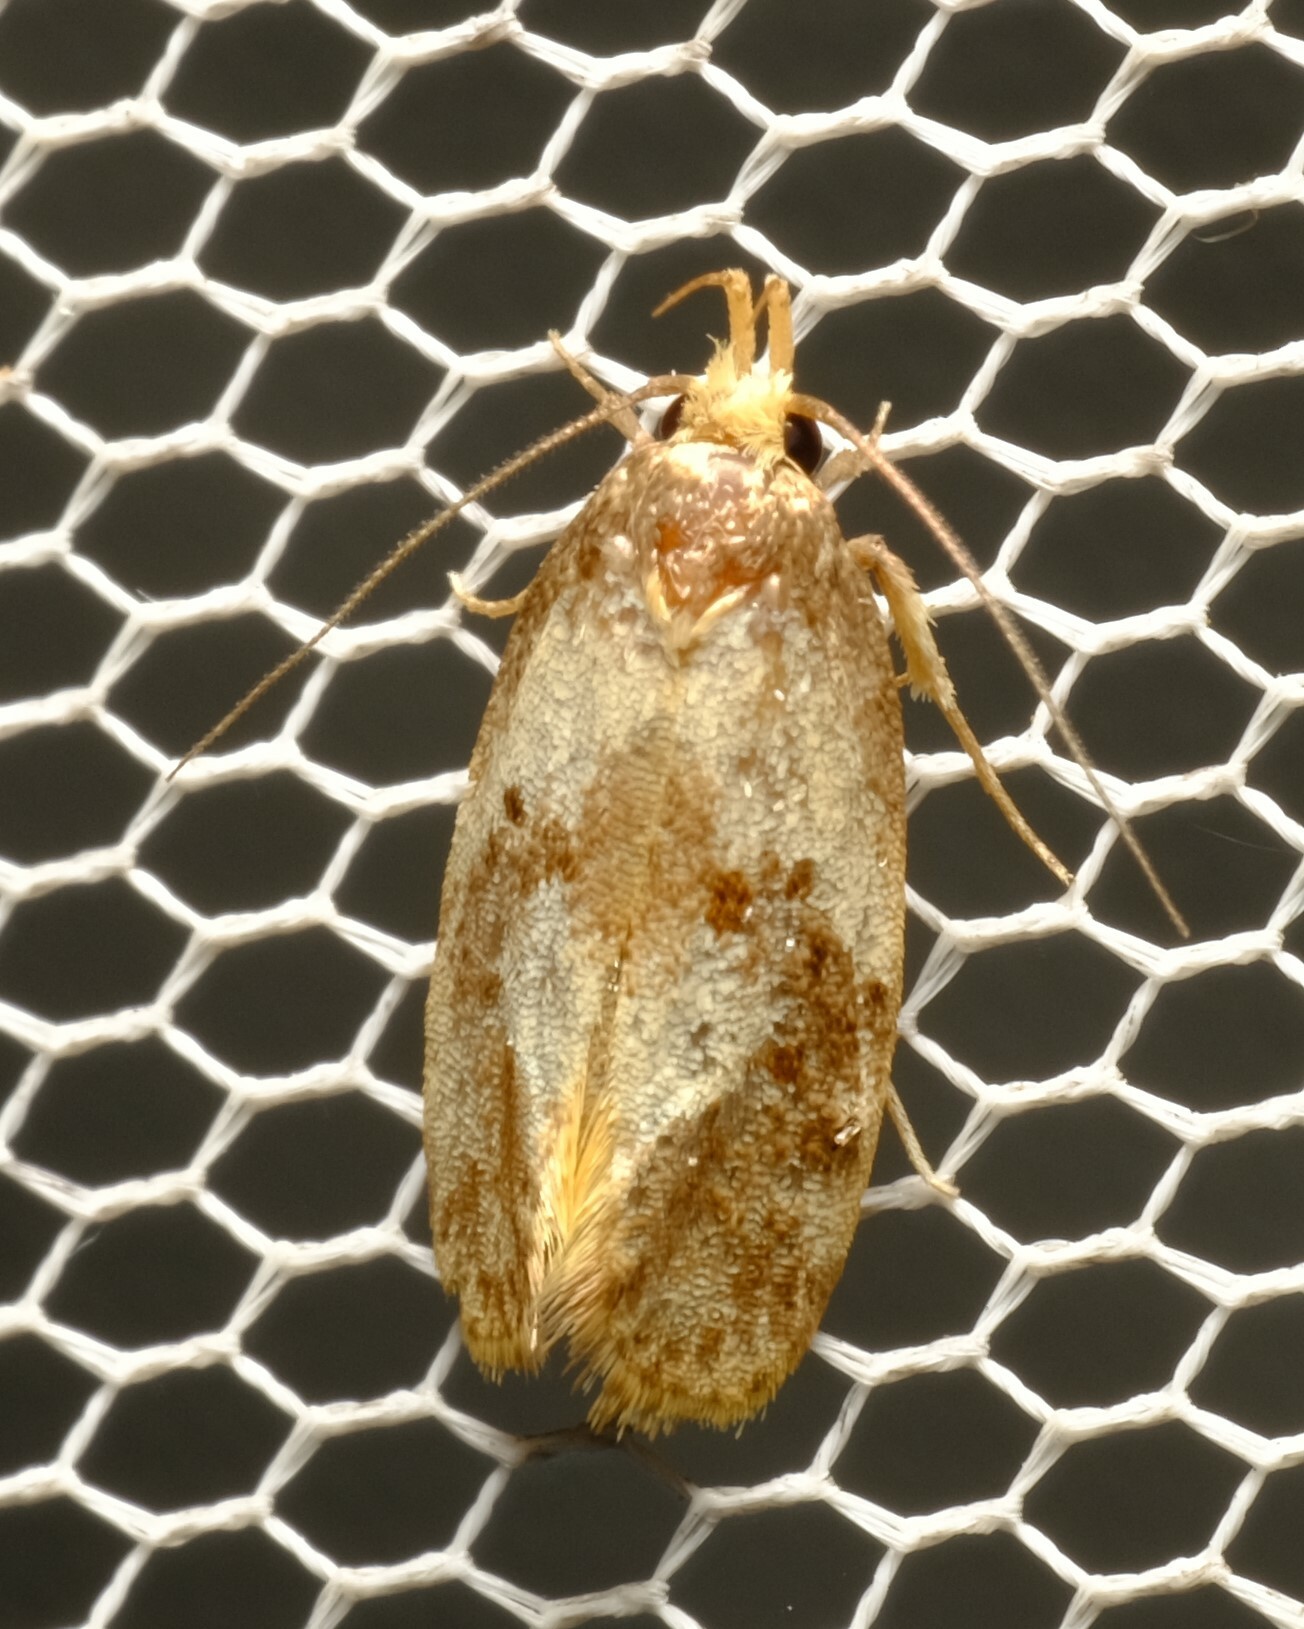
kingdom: Animalia
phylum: Arthropoda
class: Insecta
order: Lepidoptera
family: Oecophoridae
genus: Eulechria
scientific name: Eulechria marmorata
